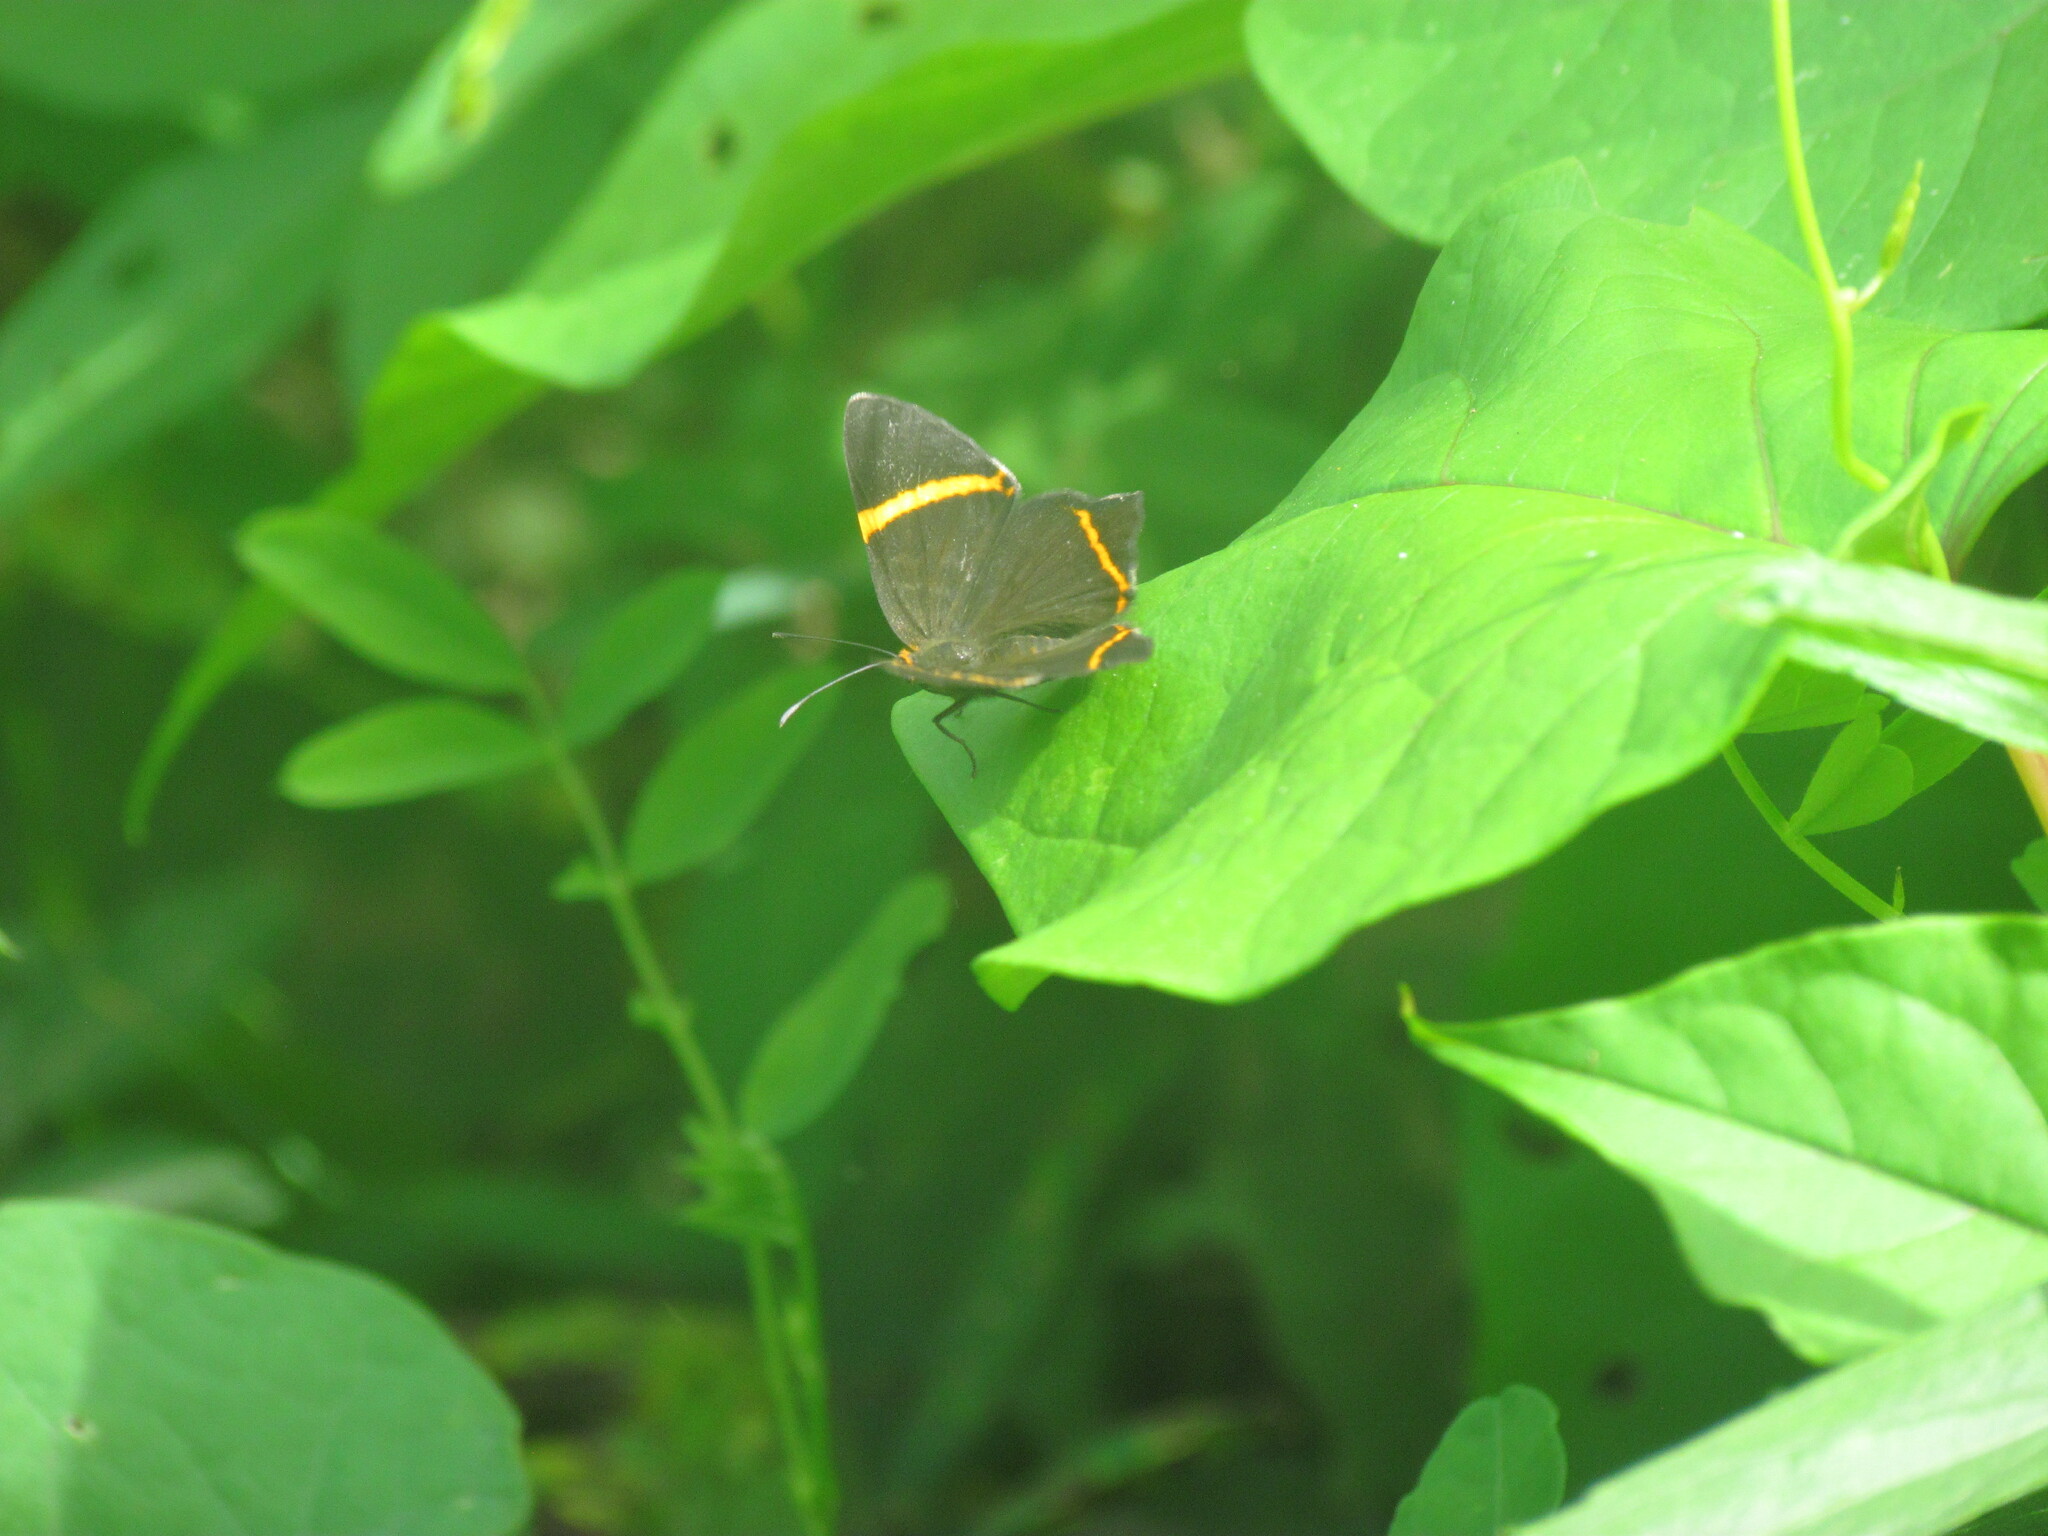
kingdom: Animalia
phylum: Arthropoda
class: Insecta
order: Lepidoptera
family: Riodinidae
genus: Riodina
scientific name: Riodina lysippoides
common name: Little dancer metalmark
